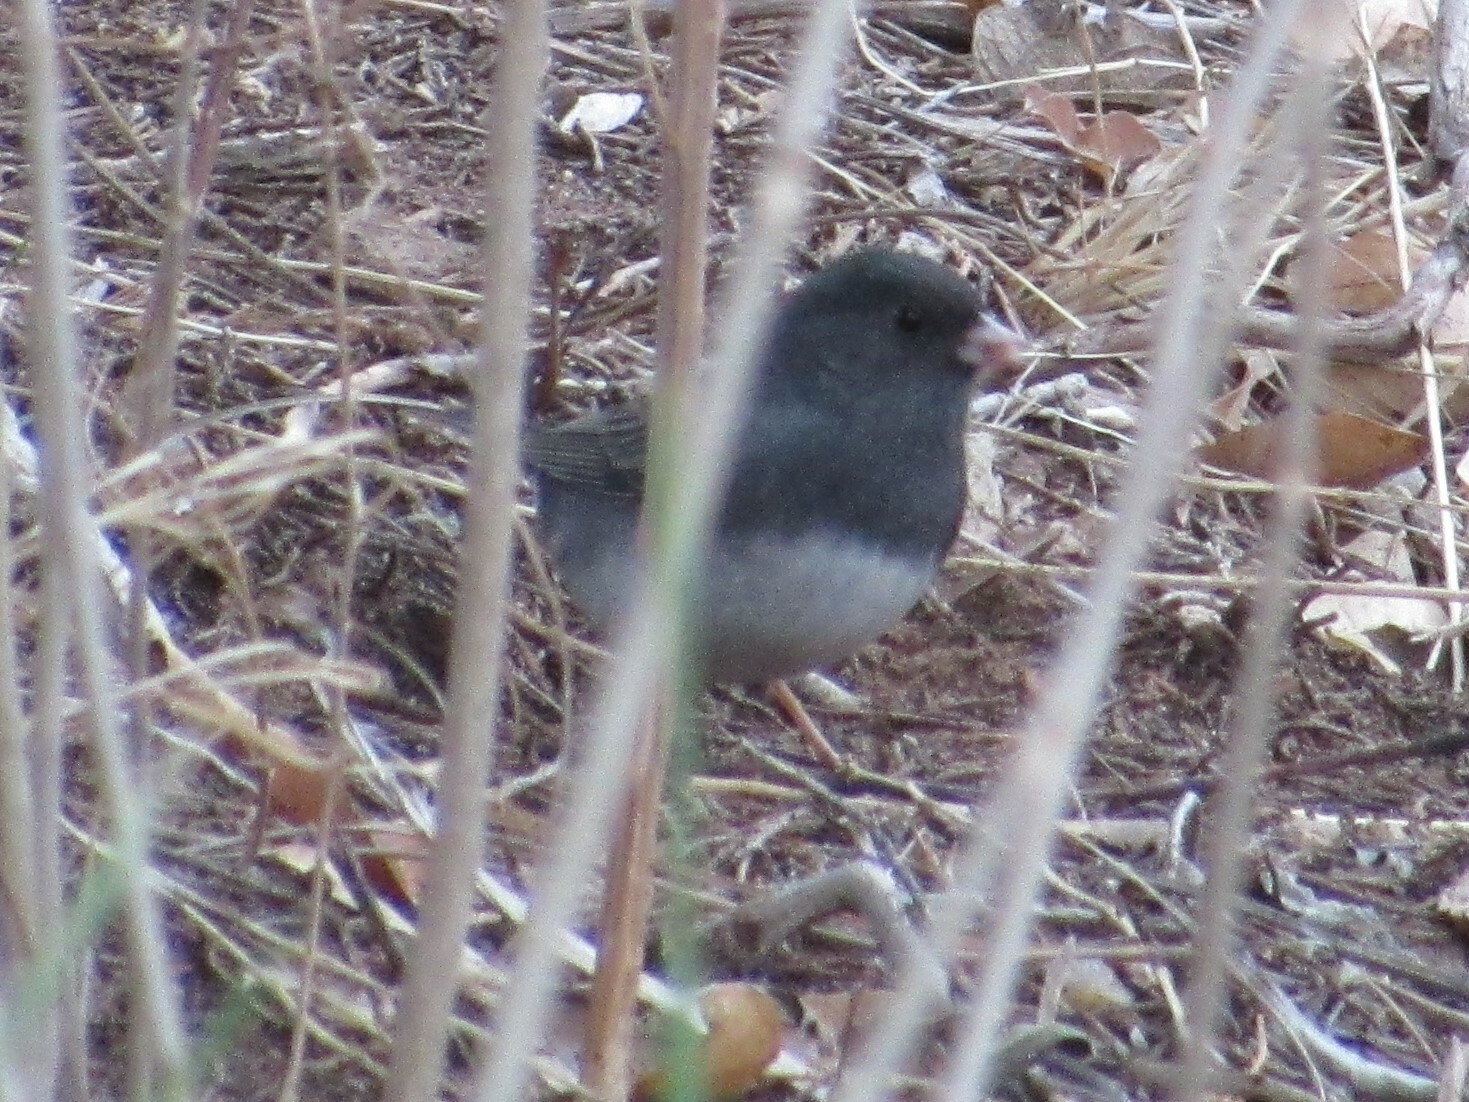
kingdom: Animalia
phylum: Chordata
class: Aves
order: Passeriformes
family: Passerellidae
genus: Junco
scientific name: Junco hyemalis
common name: Dark-eyed junco
